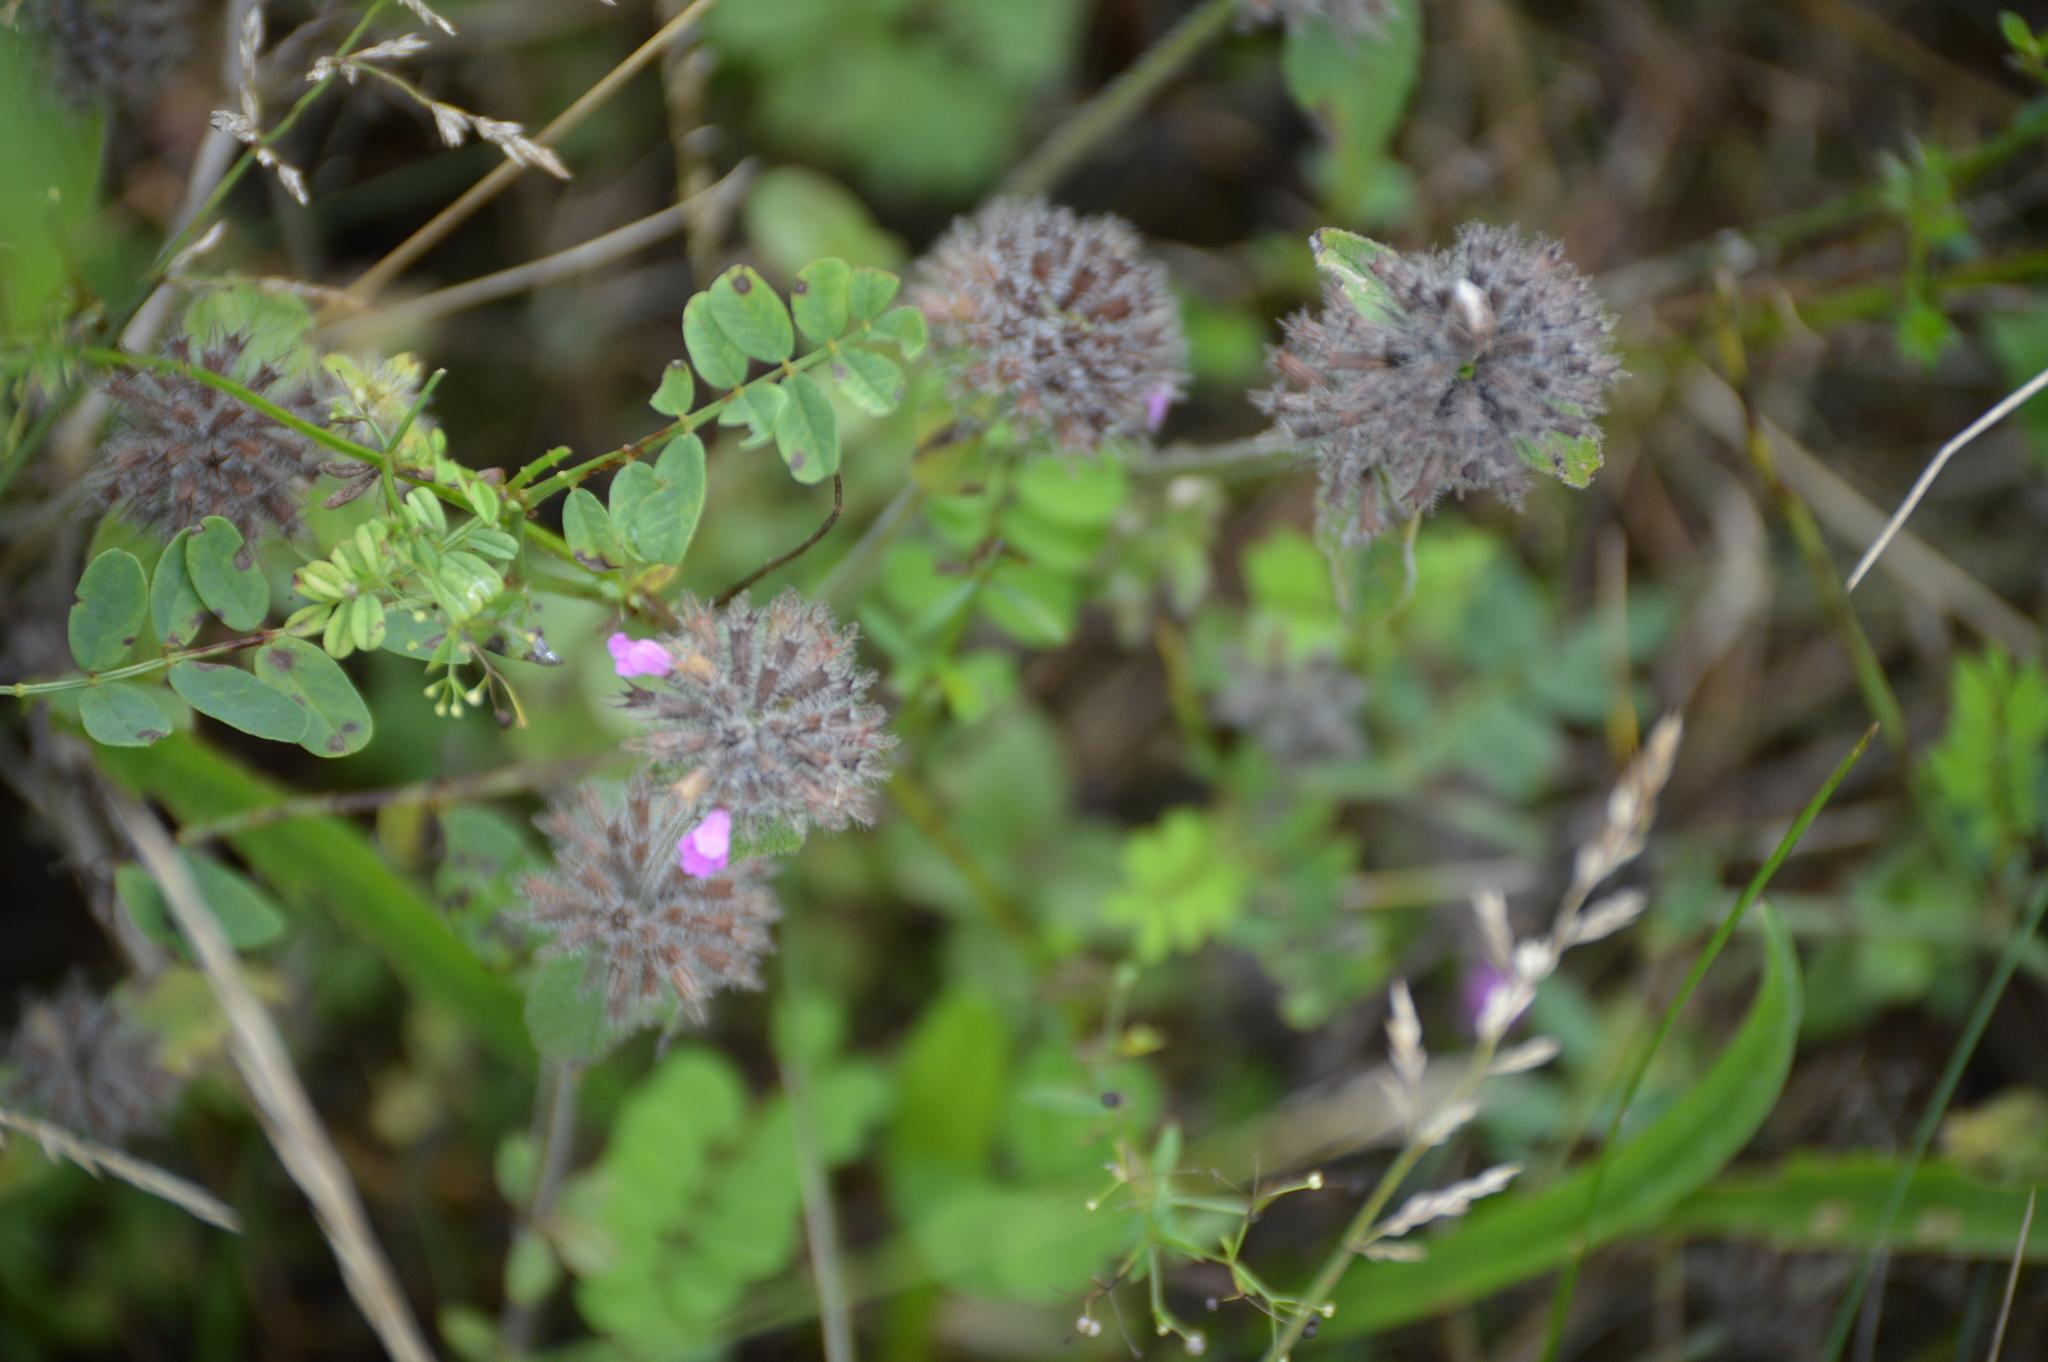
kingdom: Plantae
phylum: Tracheophyta
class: Magnoliopsida
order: Lamiales
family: Lamiaceae
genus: Clinopodium
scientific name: Clinopodium vulgare
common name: Wild basil
